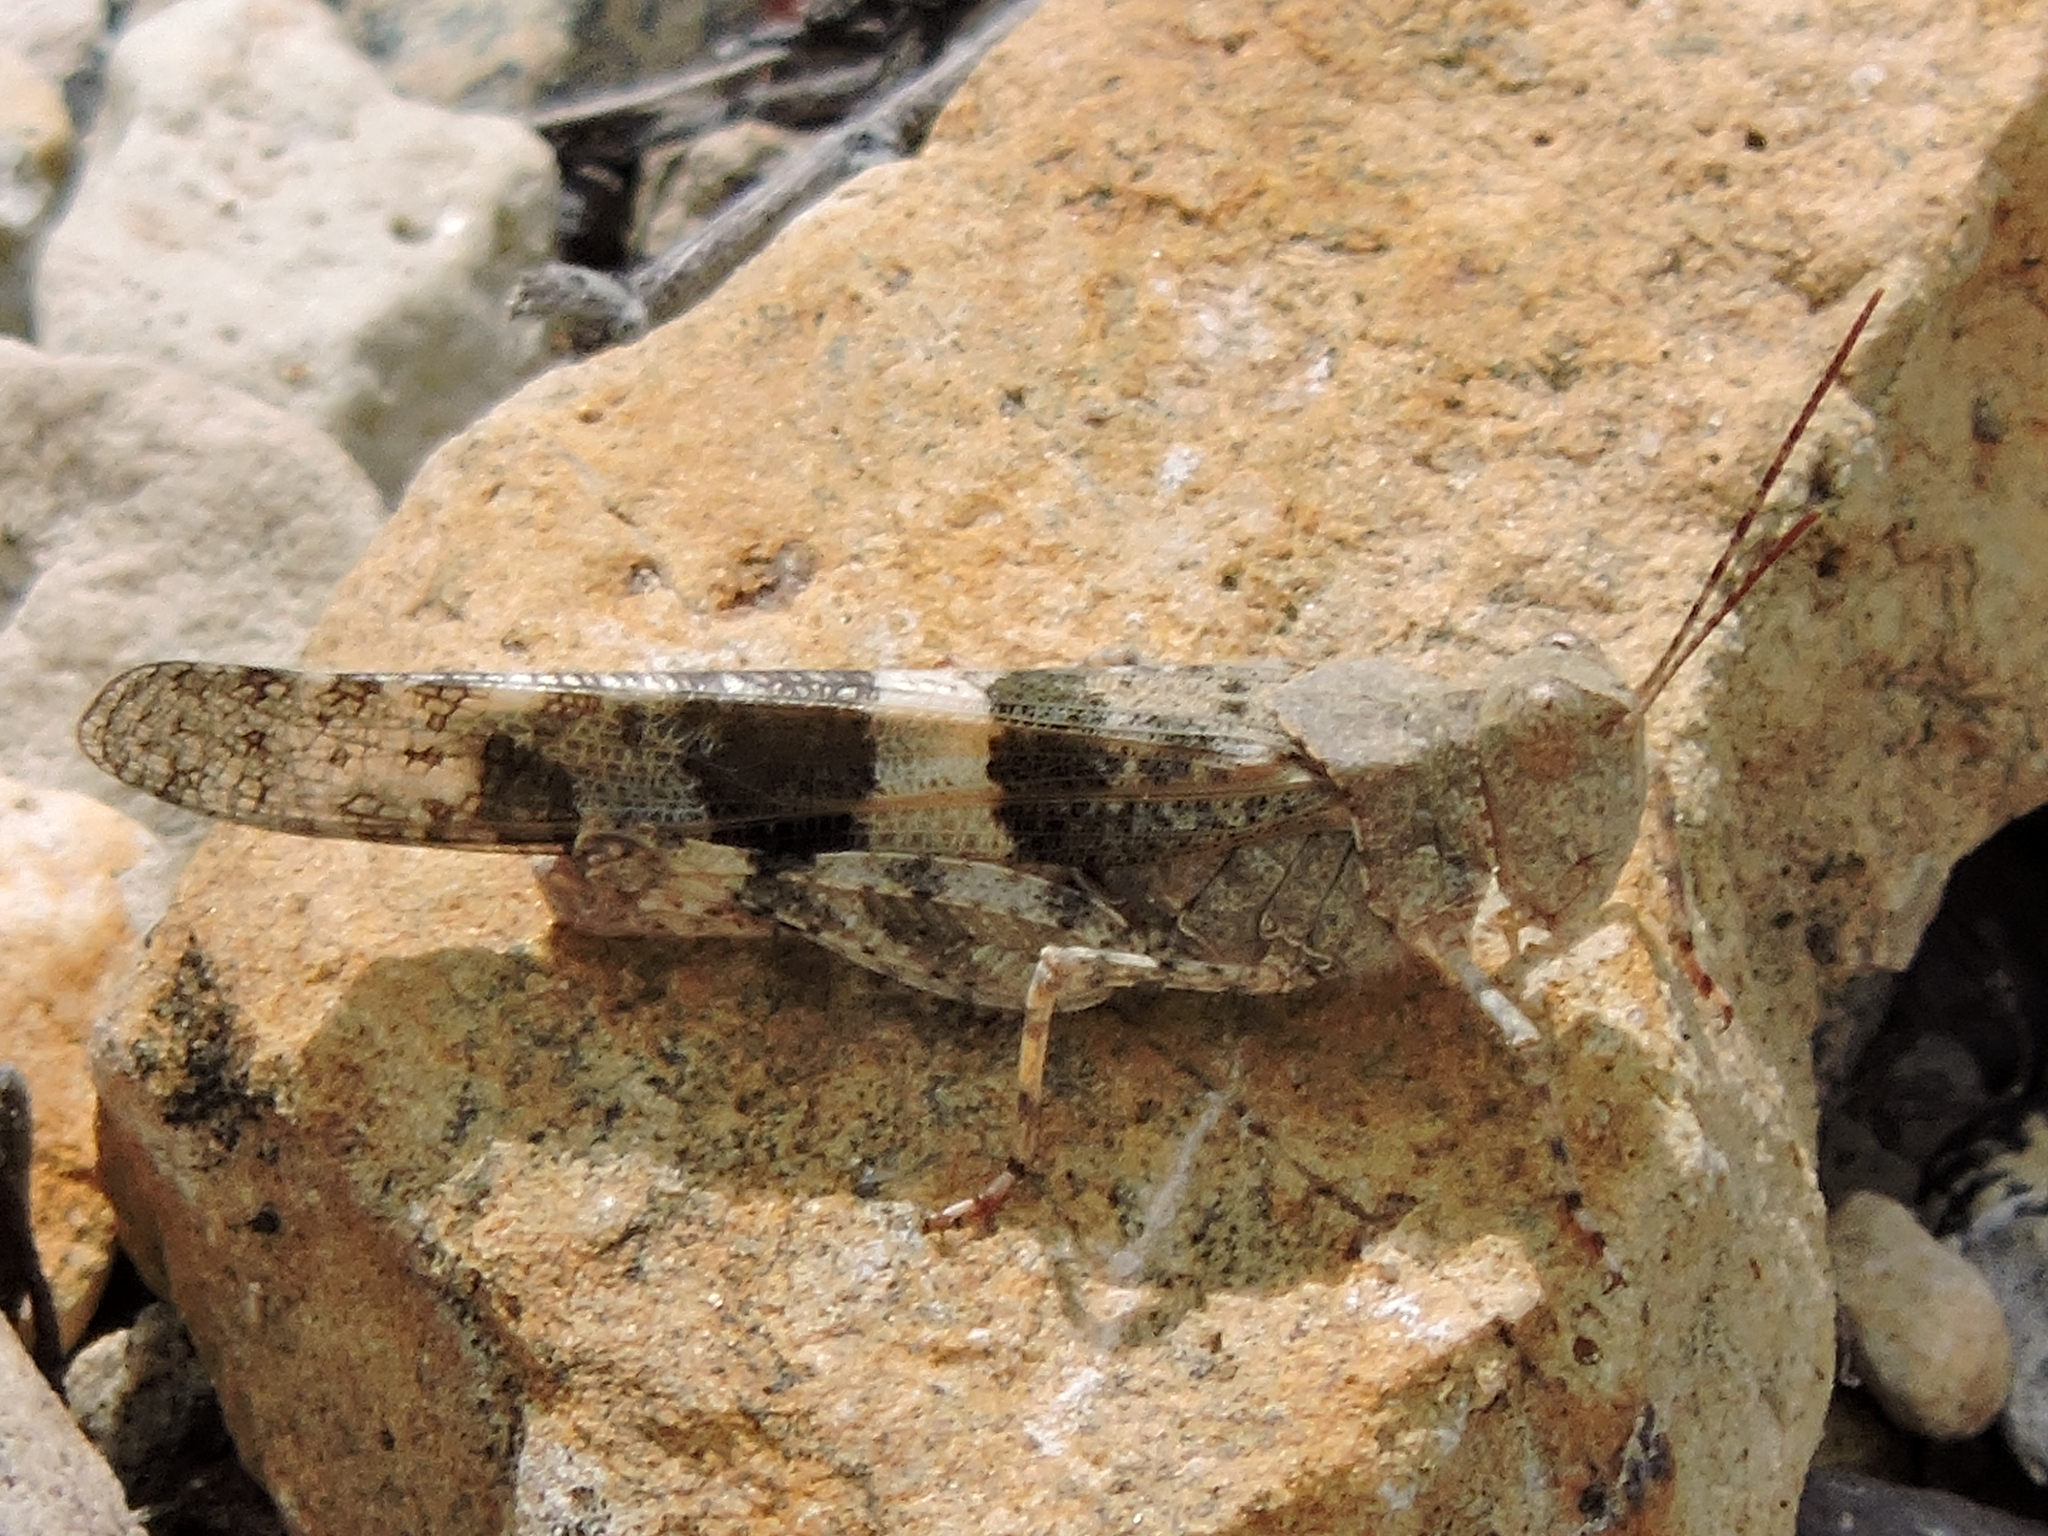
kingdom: Animalia
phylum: Arthropoda
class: Insecta
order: Orthoptera
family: Acrididae
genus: Trimerotropis
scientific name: Trimerotropis pallidipennis
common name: Pallid-winged grasshopper
